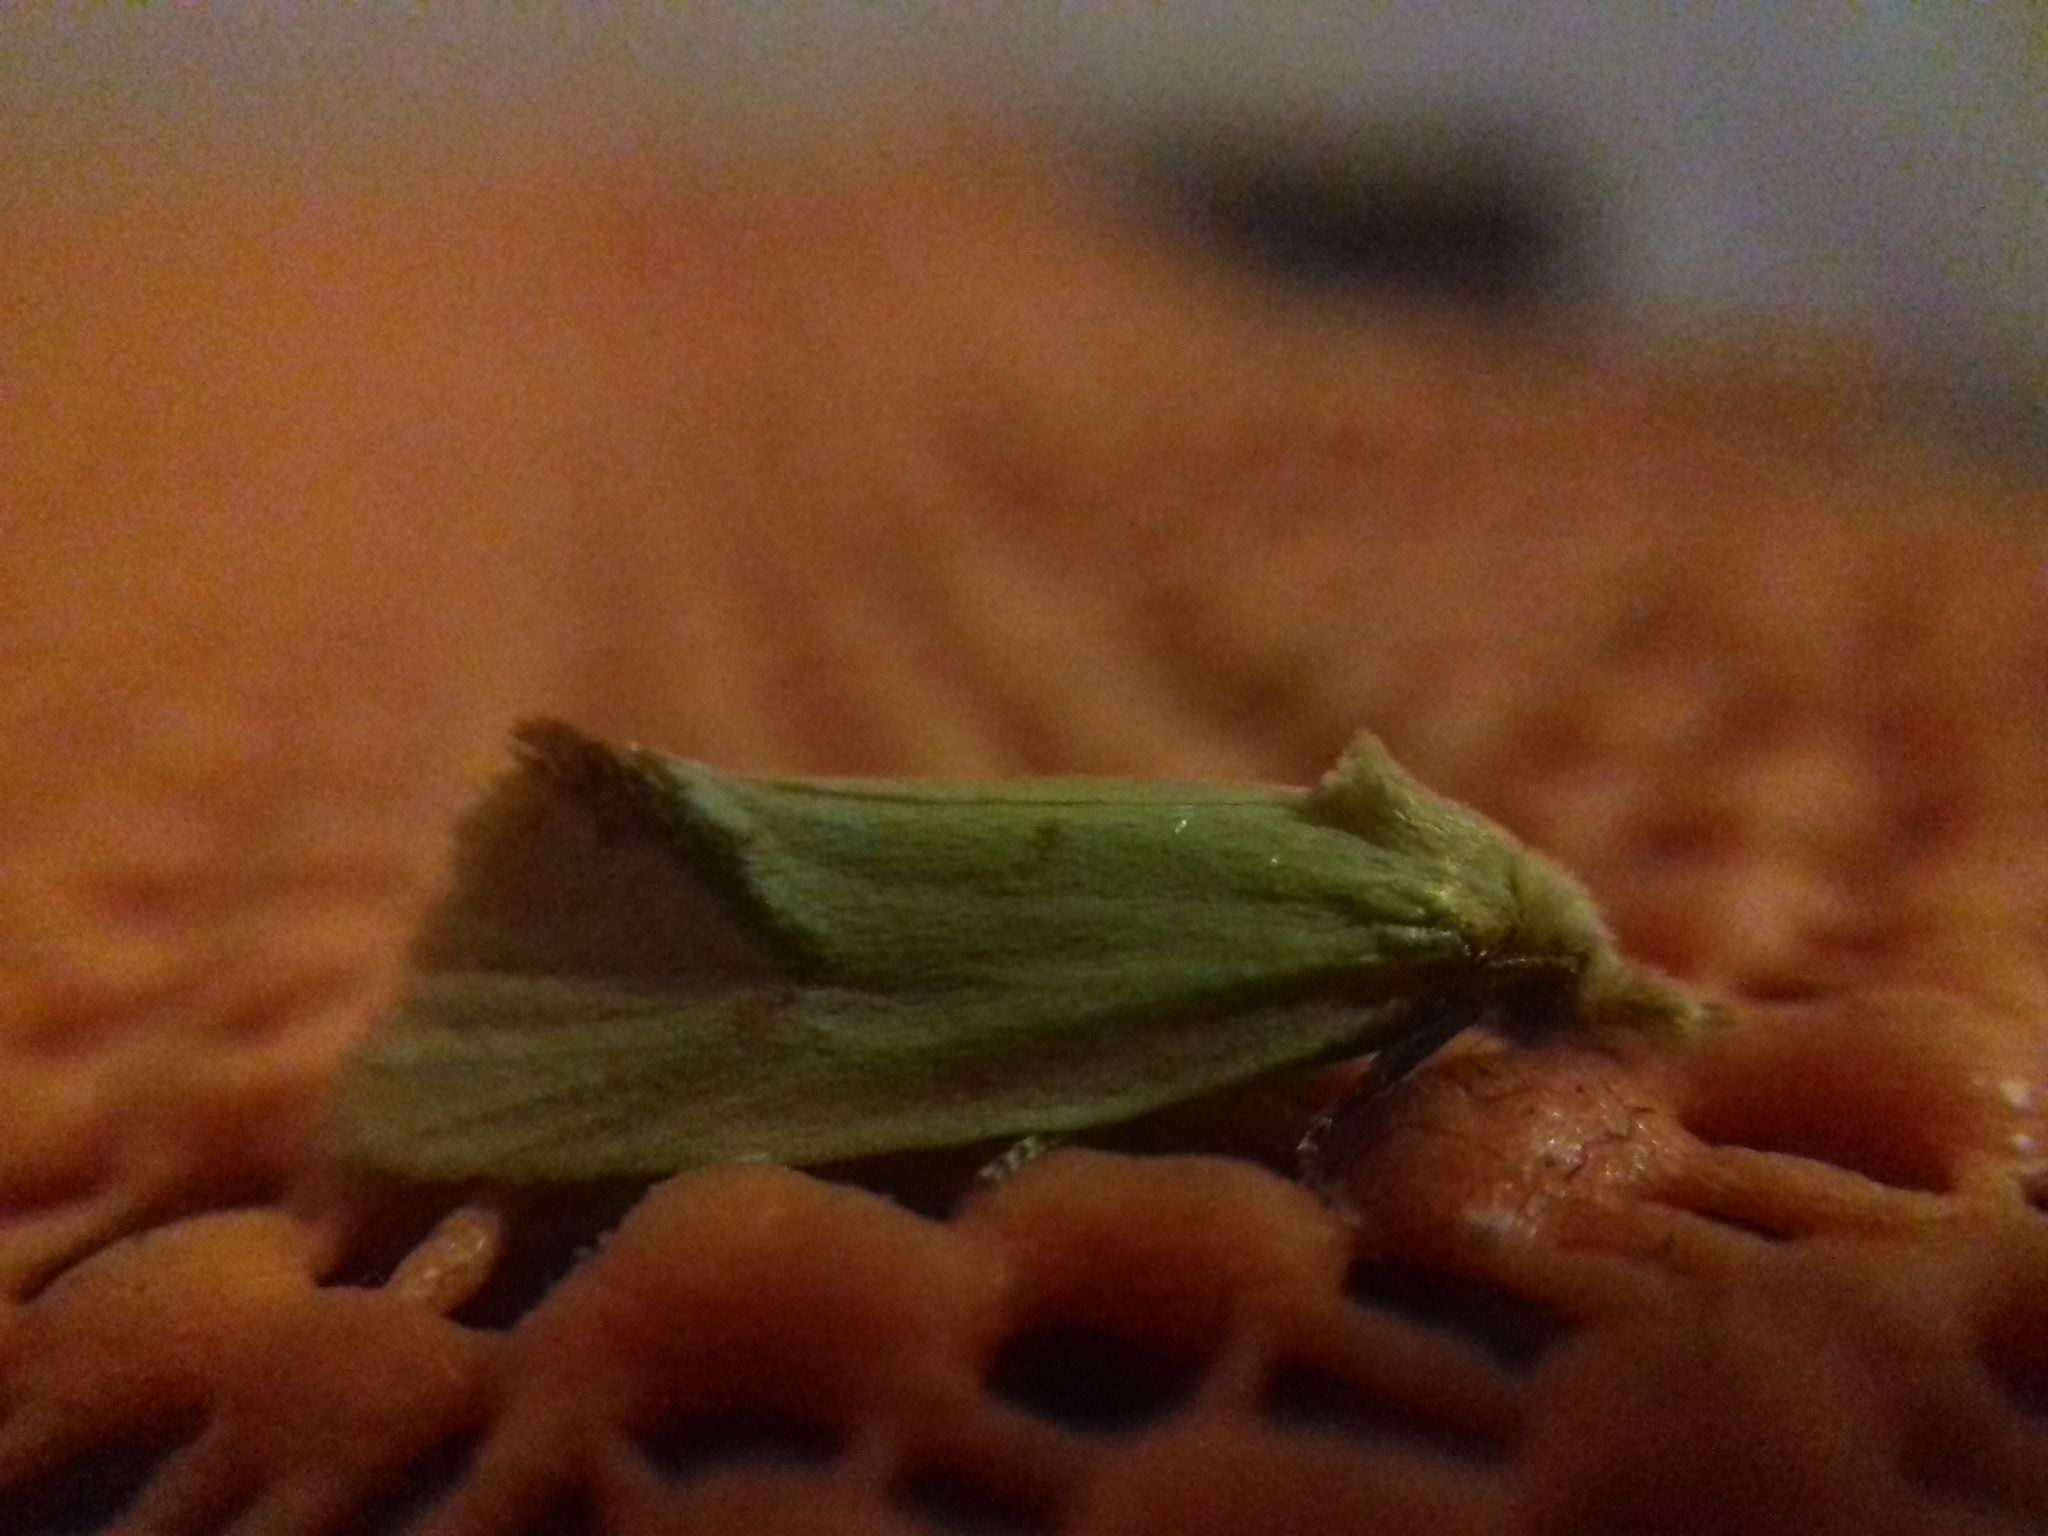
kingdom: Animalia
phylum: Arthropoda
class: Insecta
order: Lepidoptera
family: Tortricidae
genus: Agapeta
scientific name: Agapeta hamana
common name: Common yellow conch
